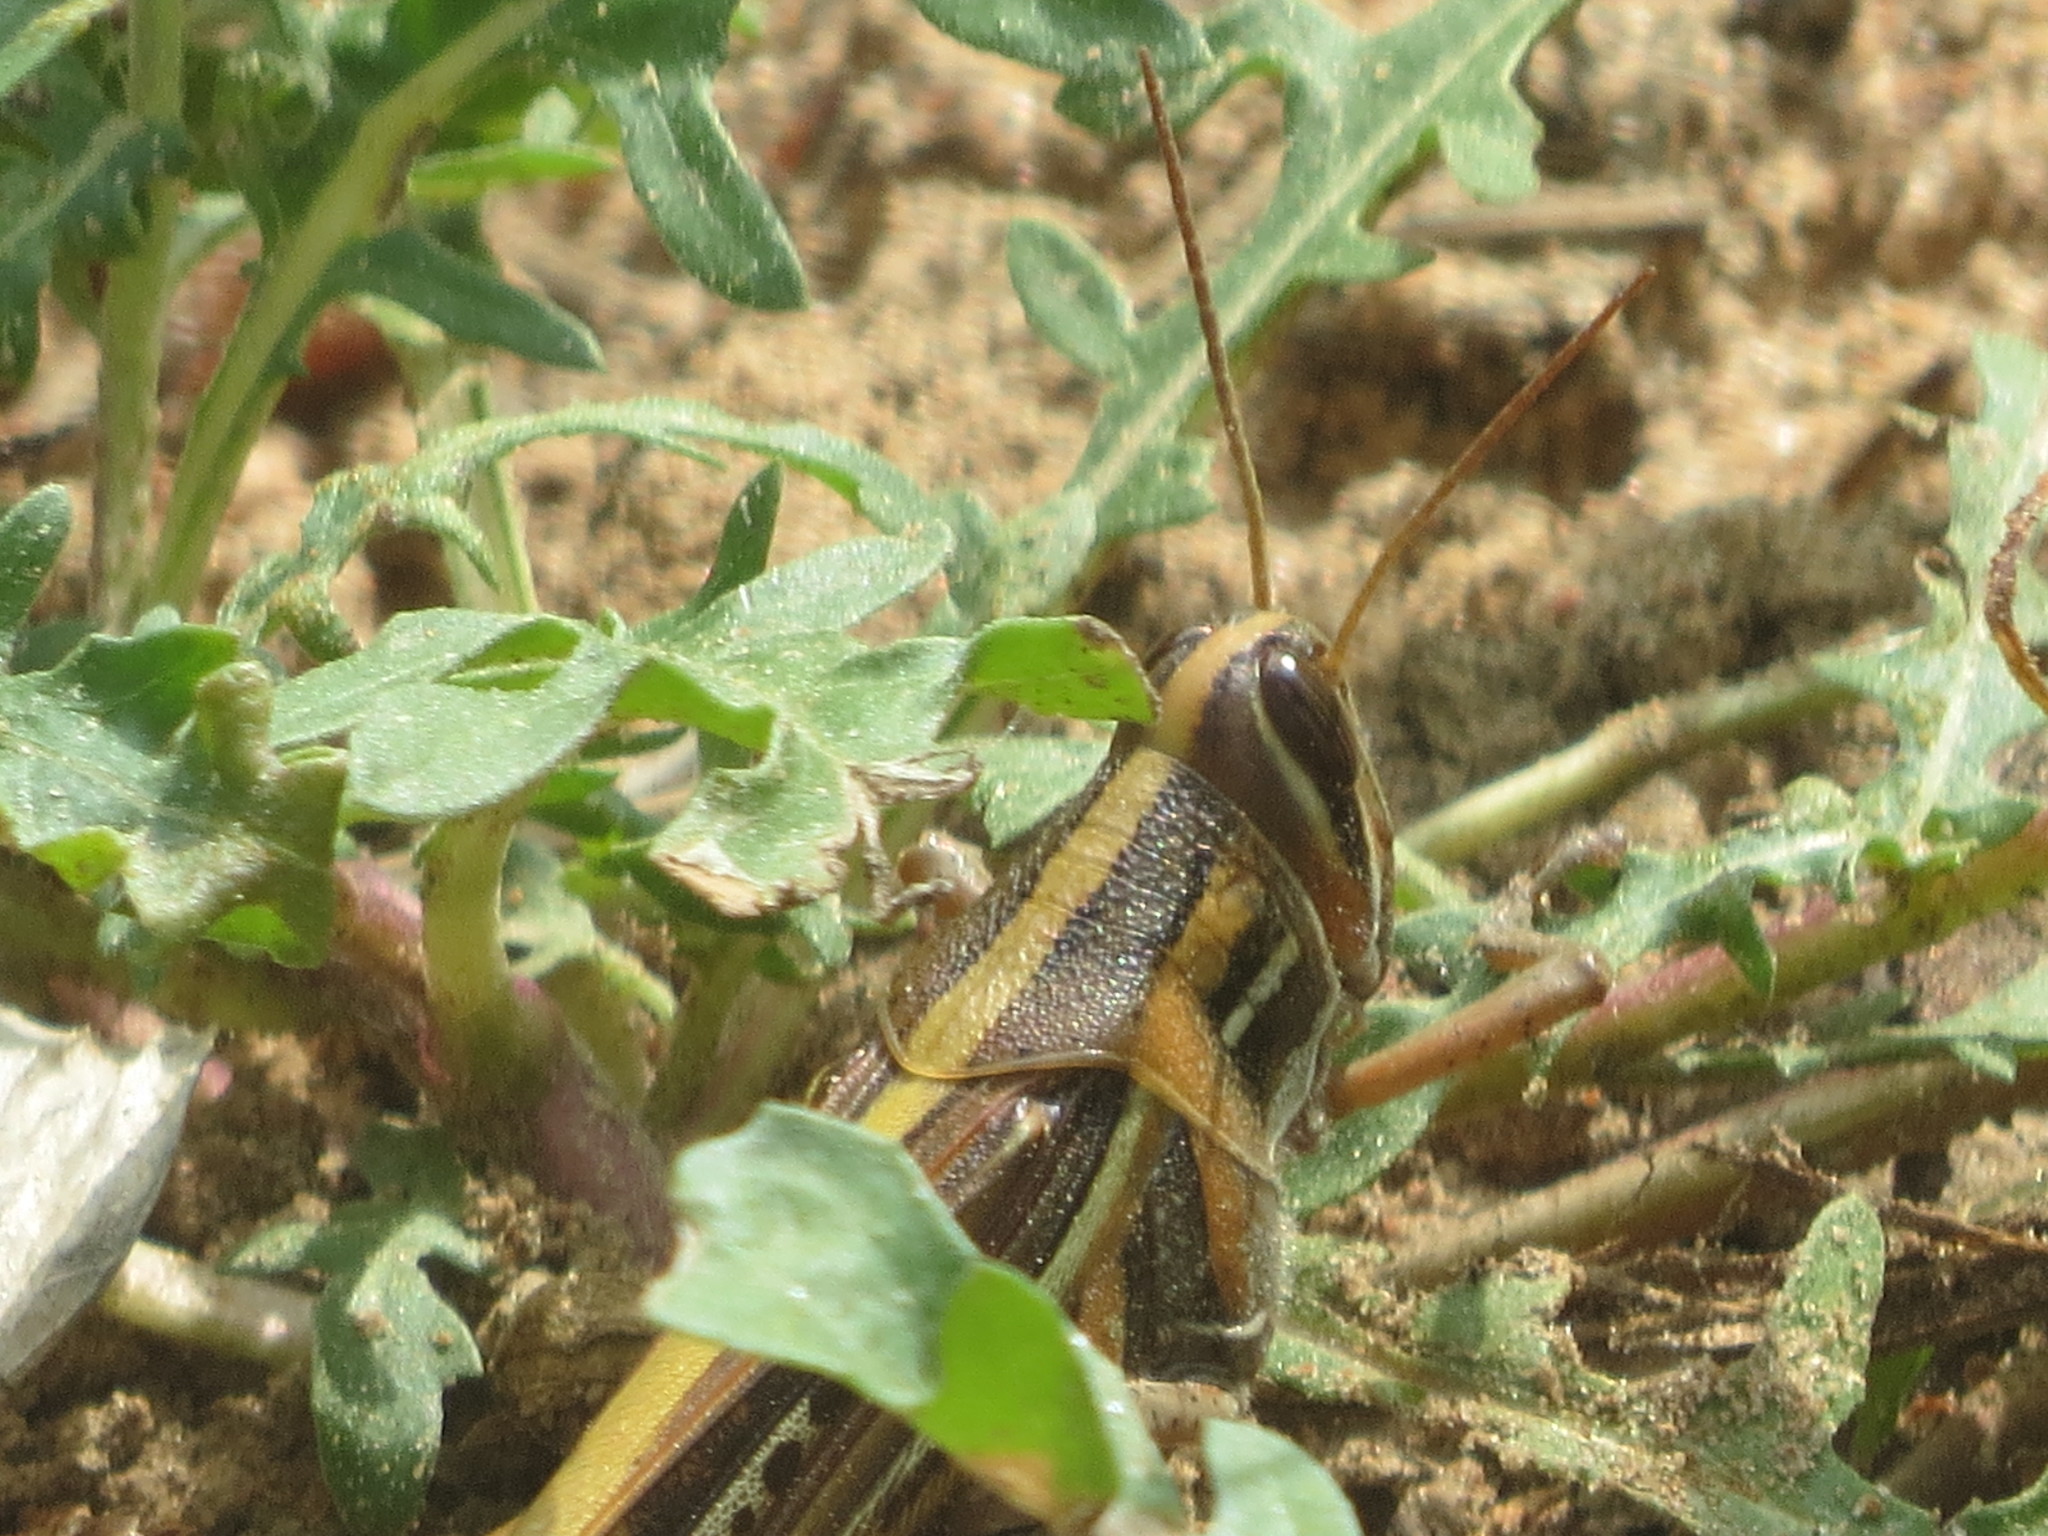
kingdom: Animalia
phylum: Arthropoda
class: Insecta
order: Orthoptera
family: Acrididae
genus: Schistocerca
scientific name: Schistocerca americana
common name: American bird locust
